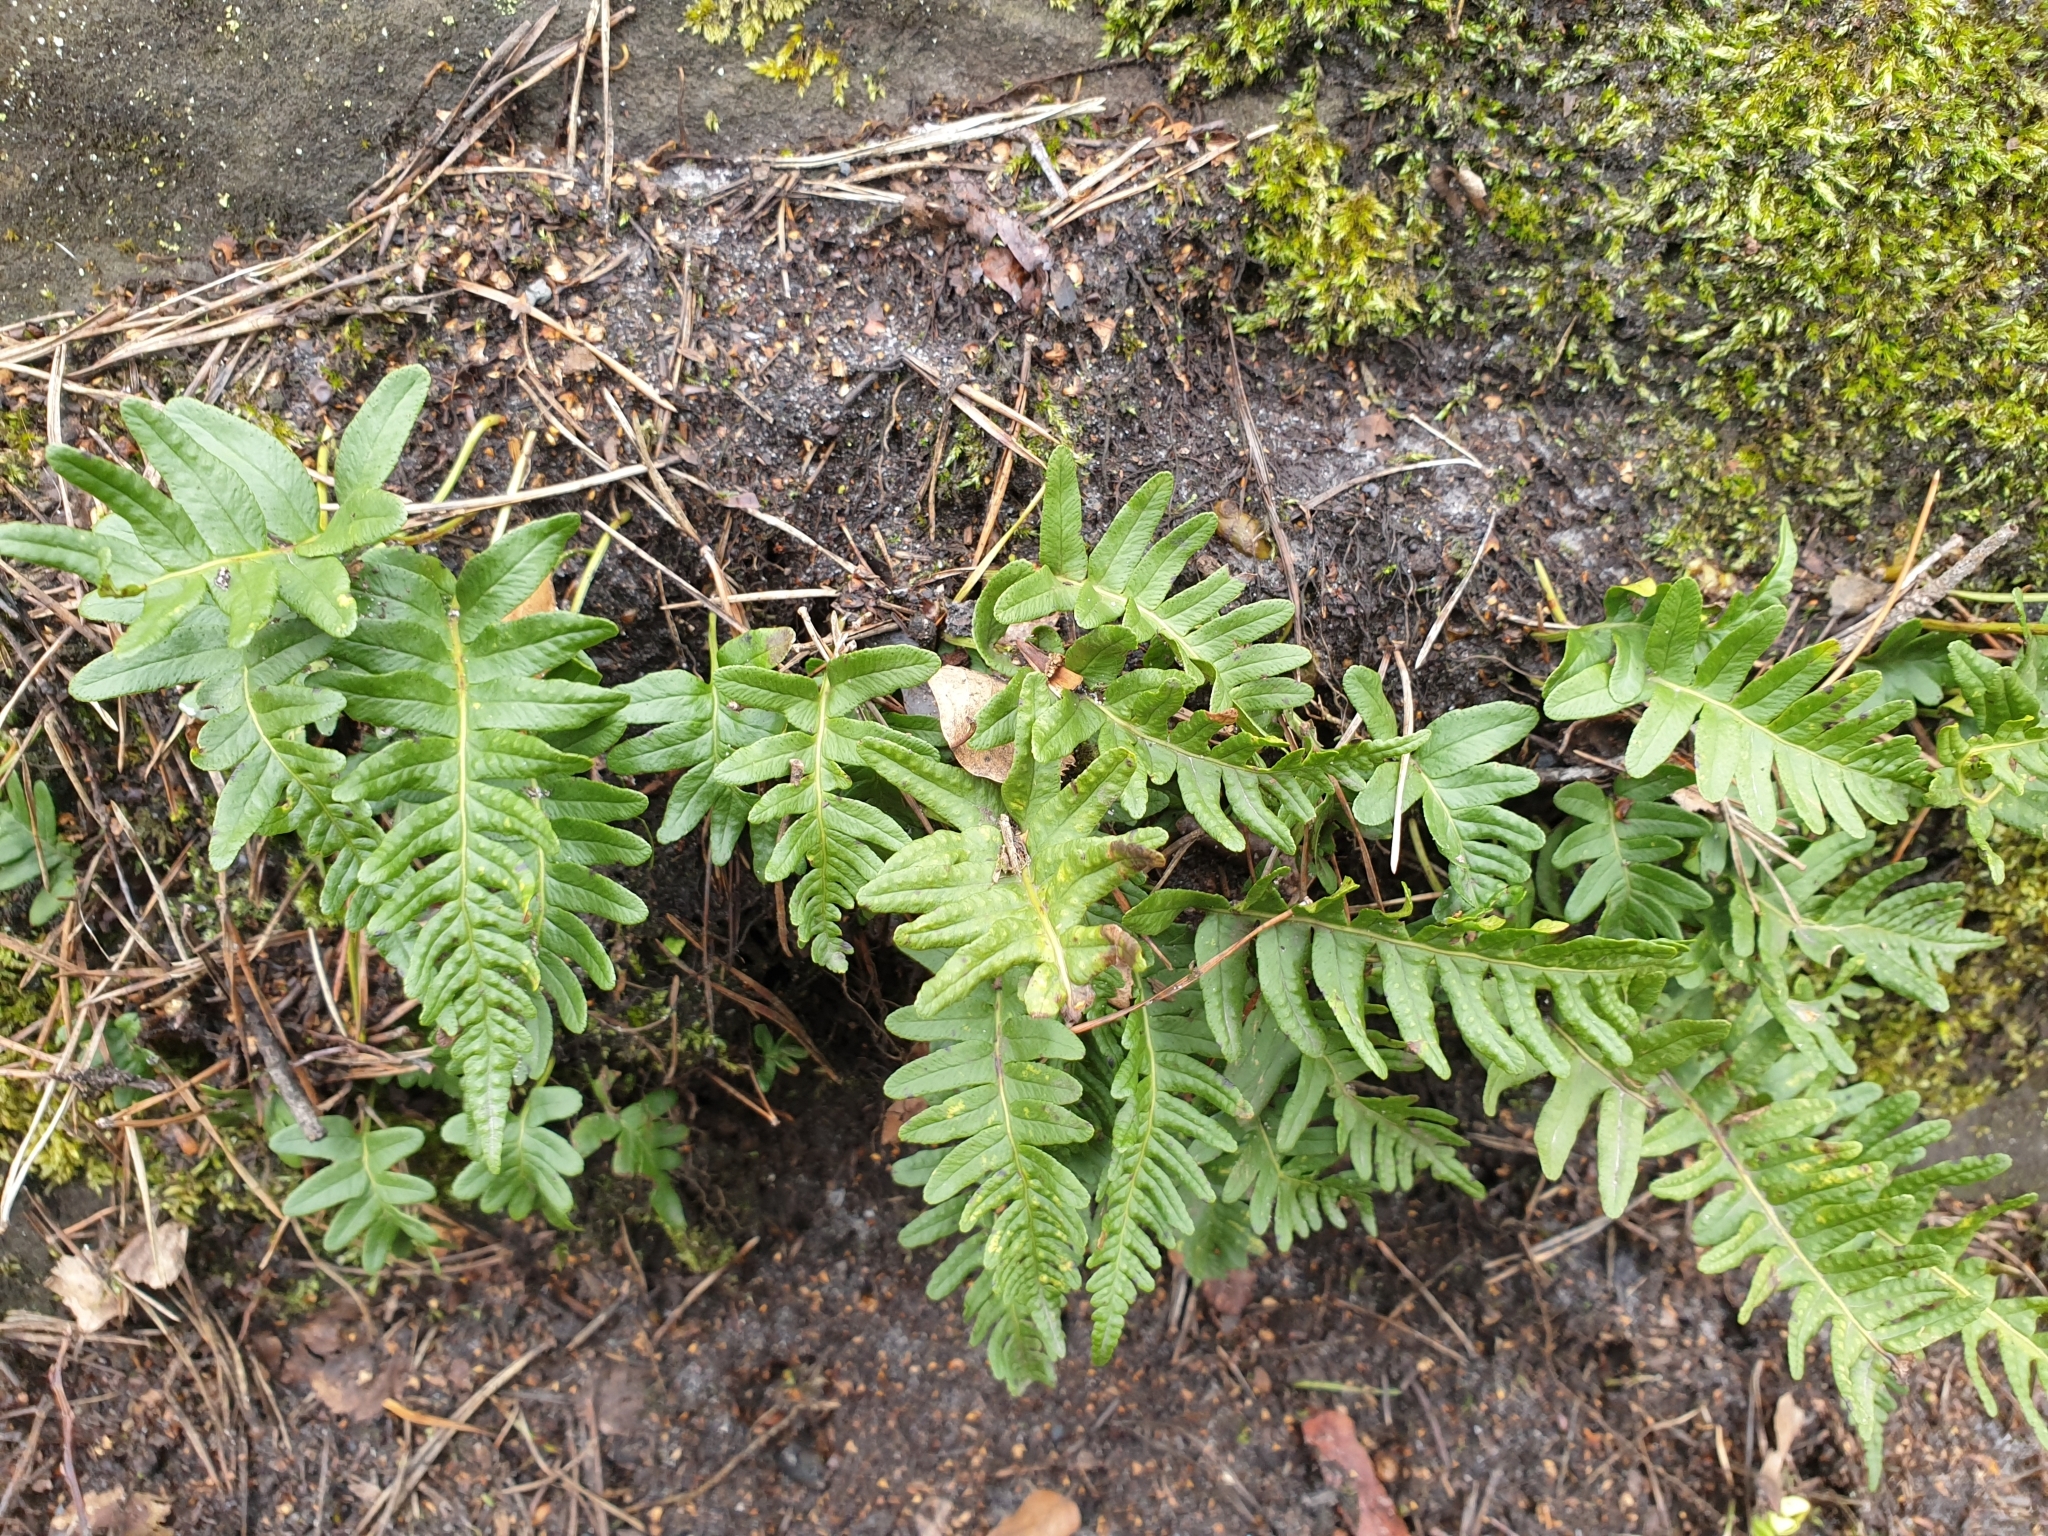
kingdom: Plantae
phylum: Tracheophyta
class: Polypodiopsida
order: Polypodiales
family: Polypodiaceae
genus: Polypodium
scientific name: Polypodium vulgare
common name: Common polypody
